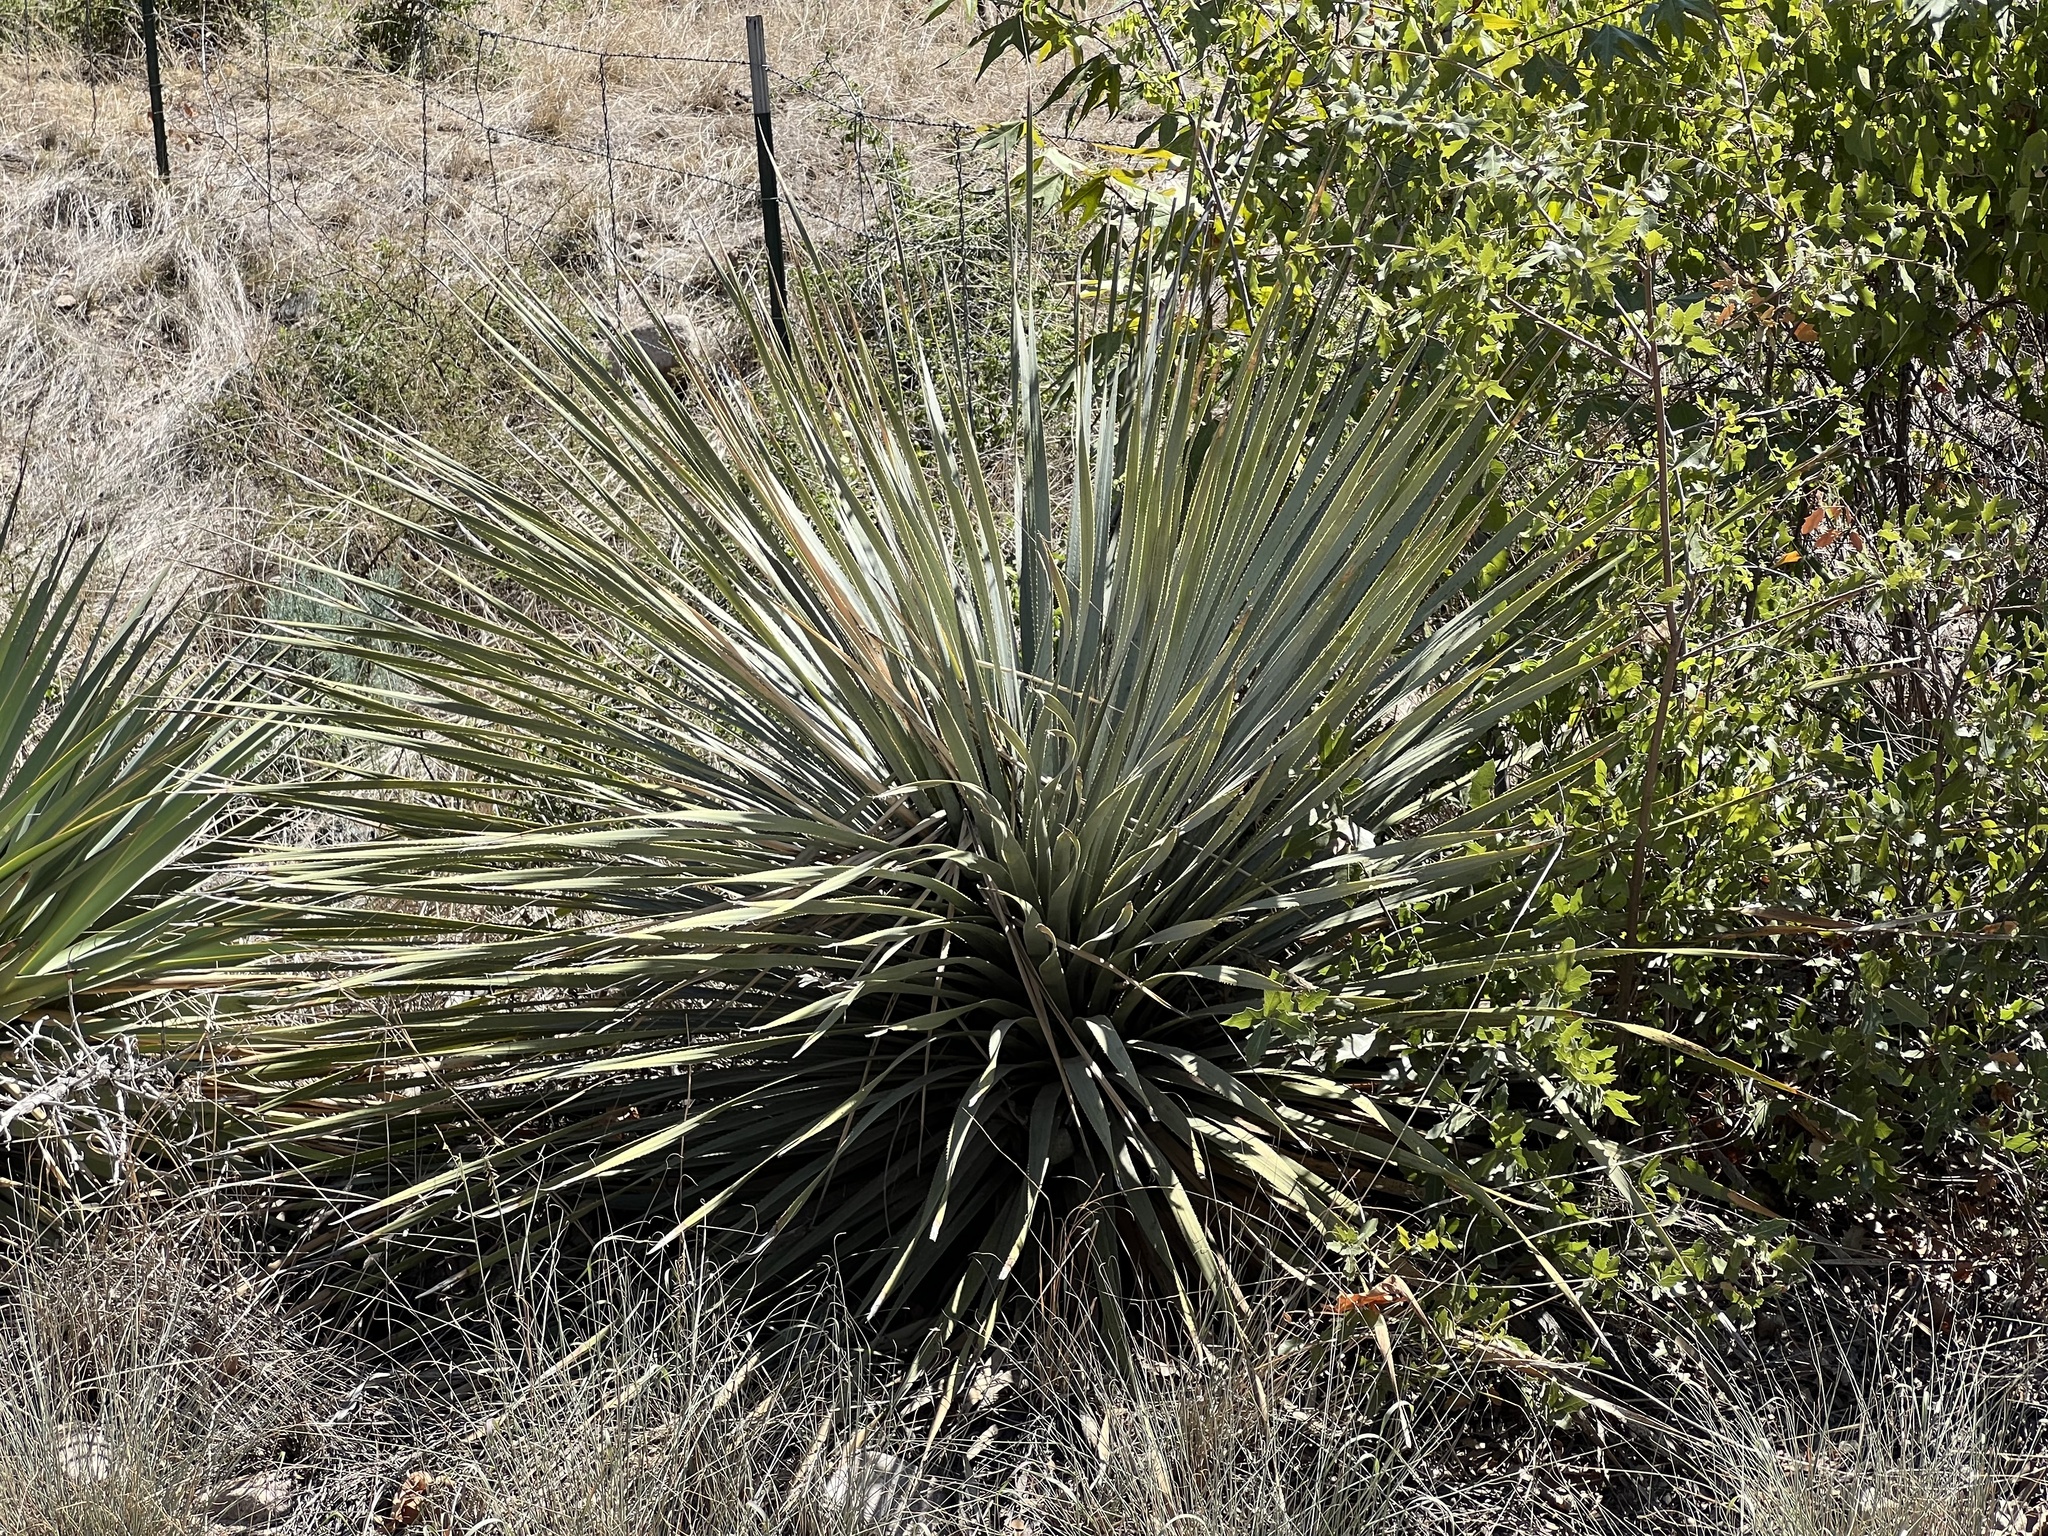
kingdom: Plantae
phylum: Tracheophyta
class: Liliopsida
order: Asparagales
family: Asparagaceae
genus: Dasylirion
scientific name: Dasylirion wheeleri
